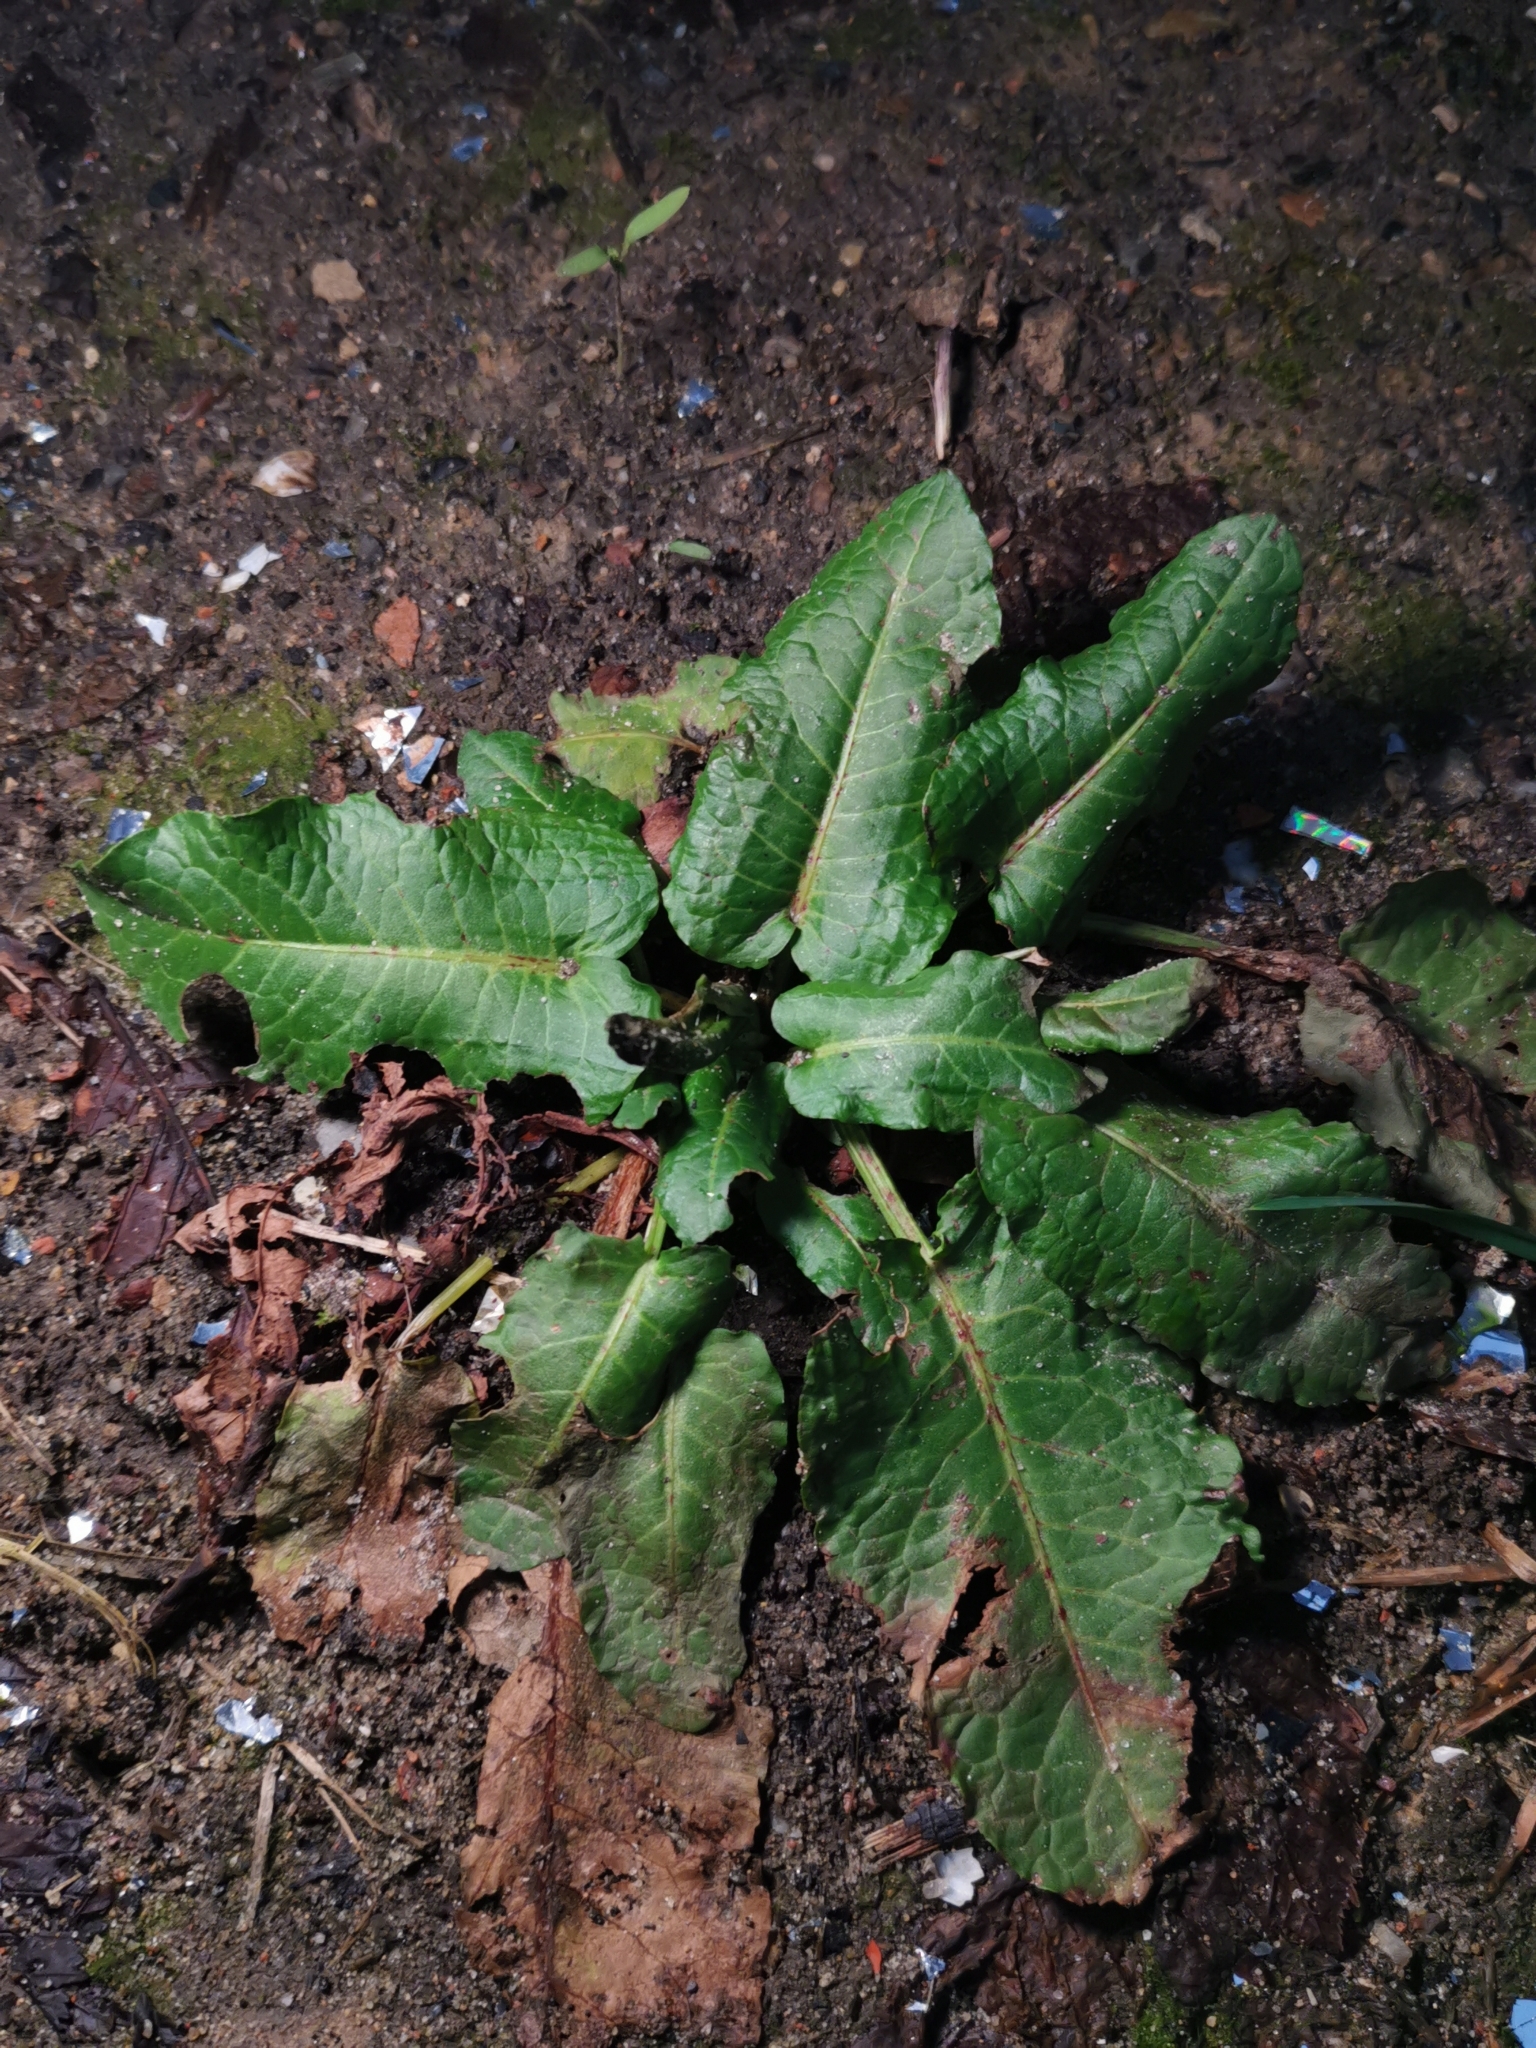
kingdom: Plantae
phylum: Tracheophyta
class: Magnoliopsida
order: Caryophyllales
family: Polygonaceae
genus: Rumex
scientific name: Rumex obtusifolius
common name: Bitter dock
